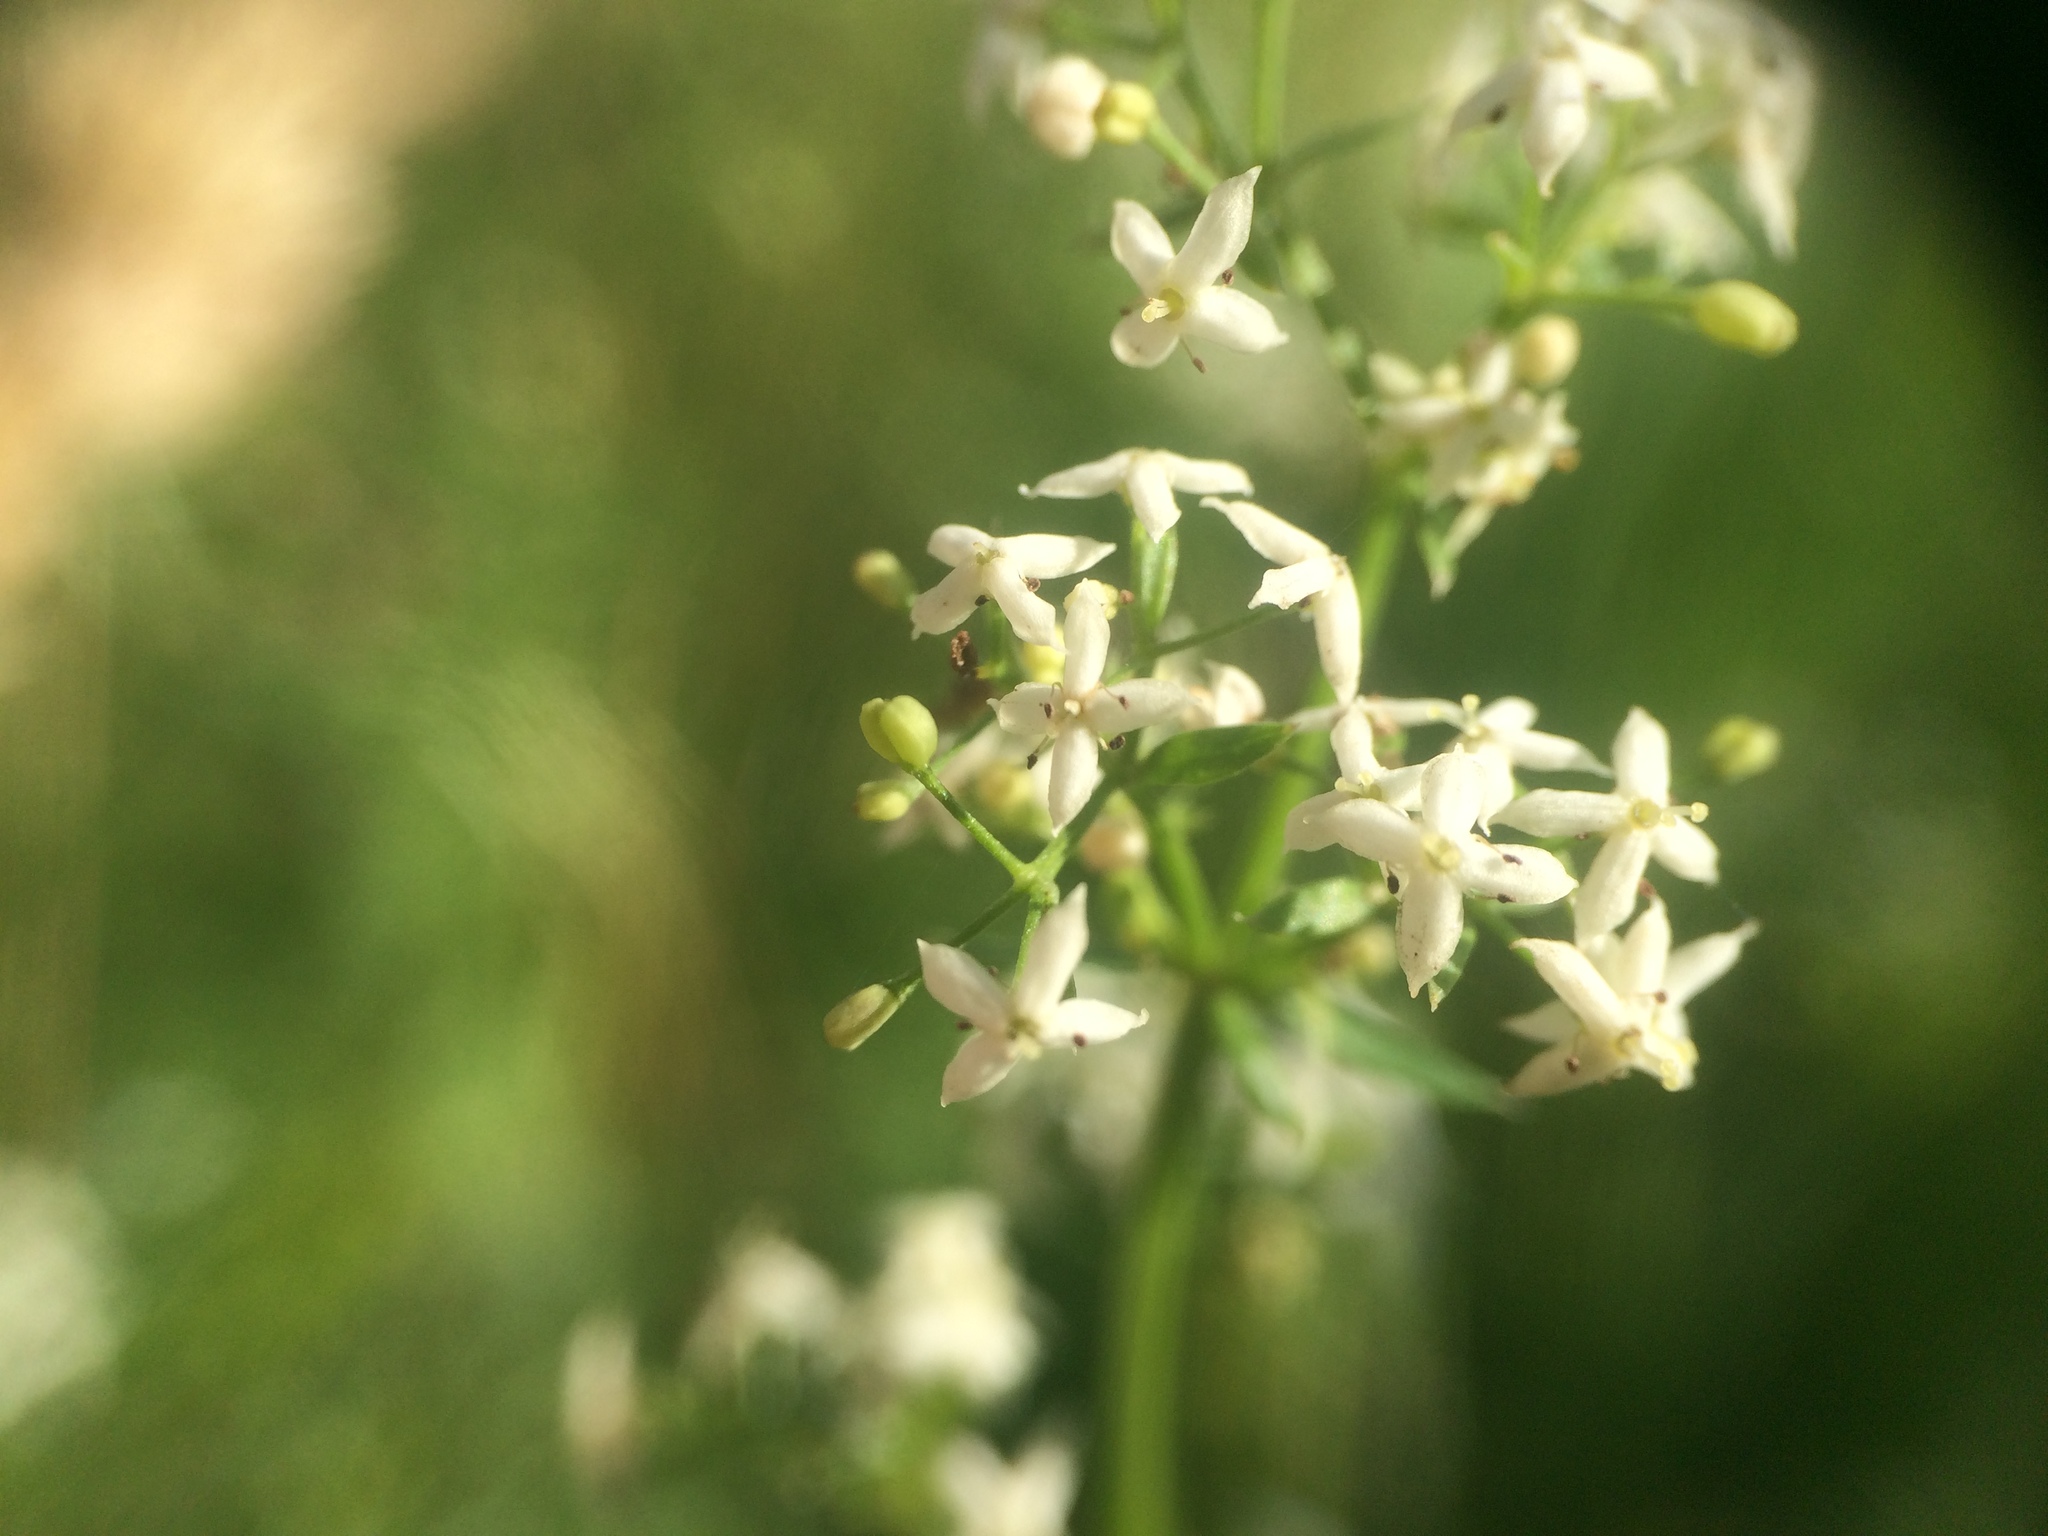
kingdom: Plantae
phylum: Tracheophyta
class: Magnoliopsida
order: Gentianales
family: Rubiaceae
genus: Galium
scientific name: Galium mollugo
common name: Hedge bedstraw
